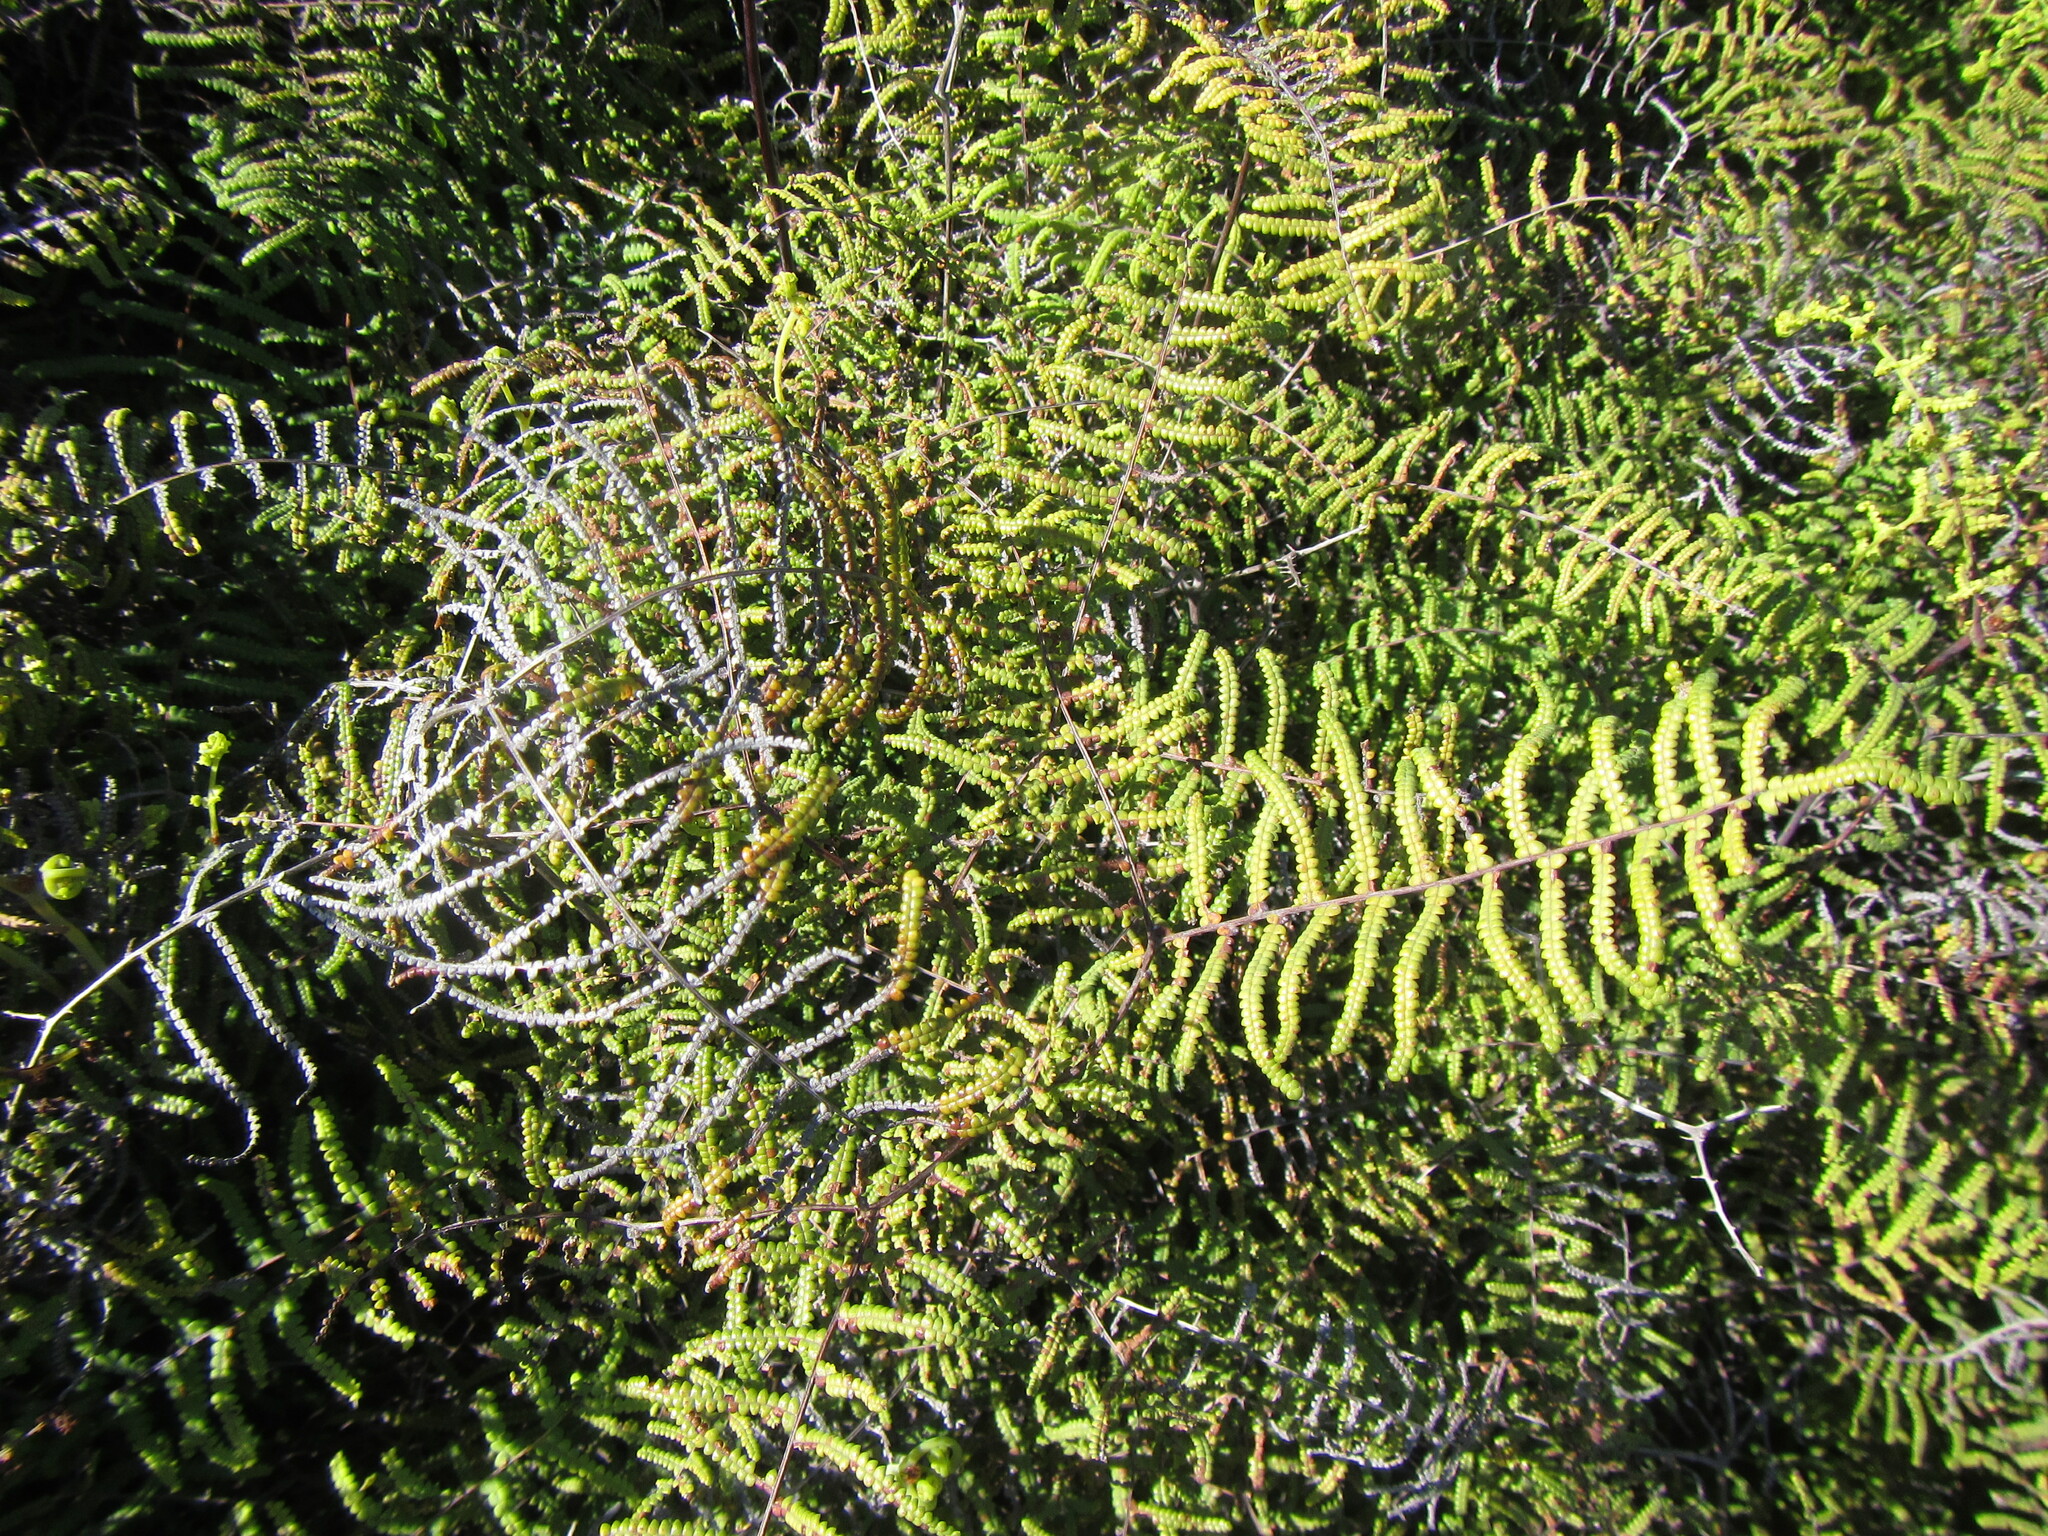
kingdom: Plantae
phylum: Tracheophyta
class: Polypodiopsida
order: Gleicheniales
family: Gleicheniaceae
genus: Gleichenia
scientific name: Gleichenia polypodioides
